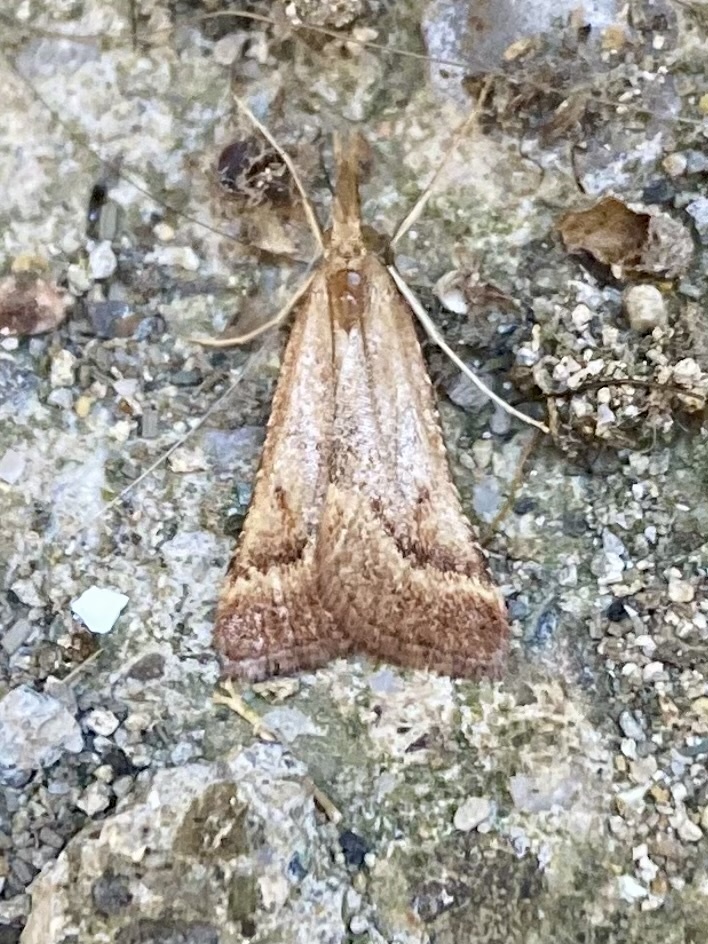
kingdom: Animalia
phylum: Arthropoda
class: Insecta
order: Lepidoptera
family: Pyralidae
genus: Synaphe
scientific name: Synaphe punctalis
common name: Long-legged tabby
